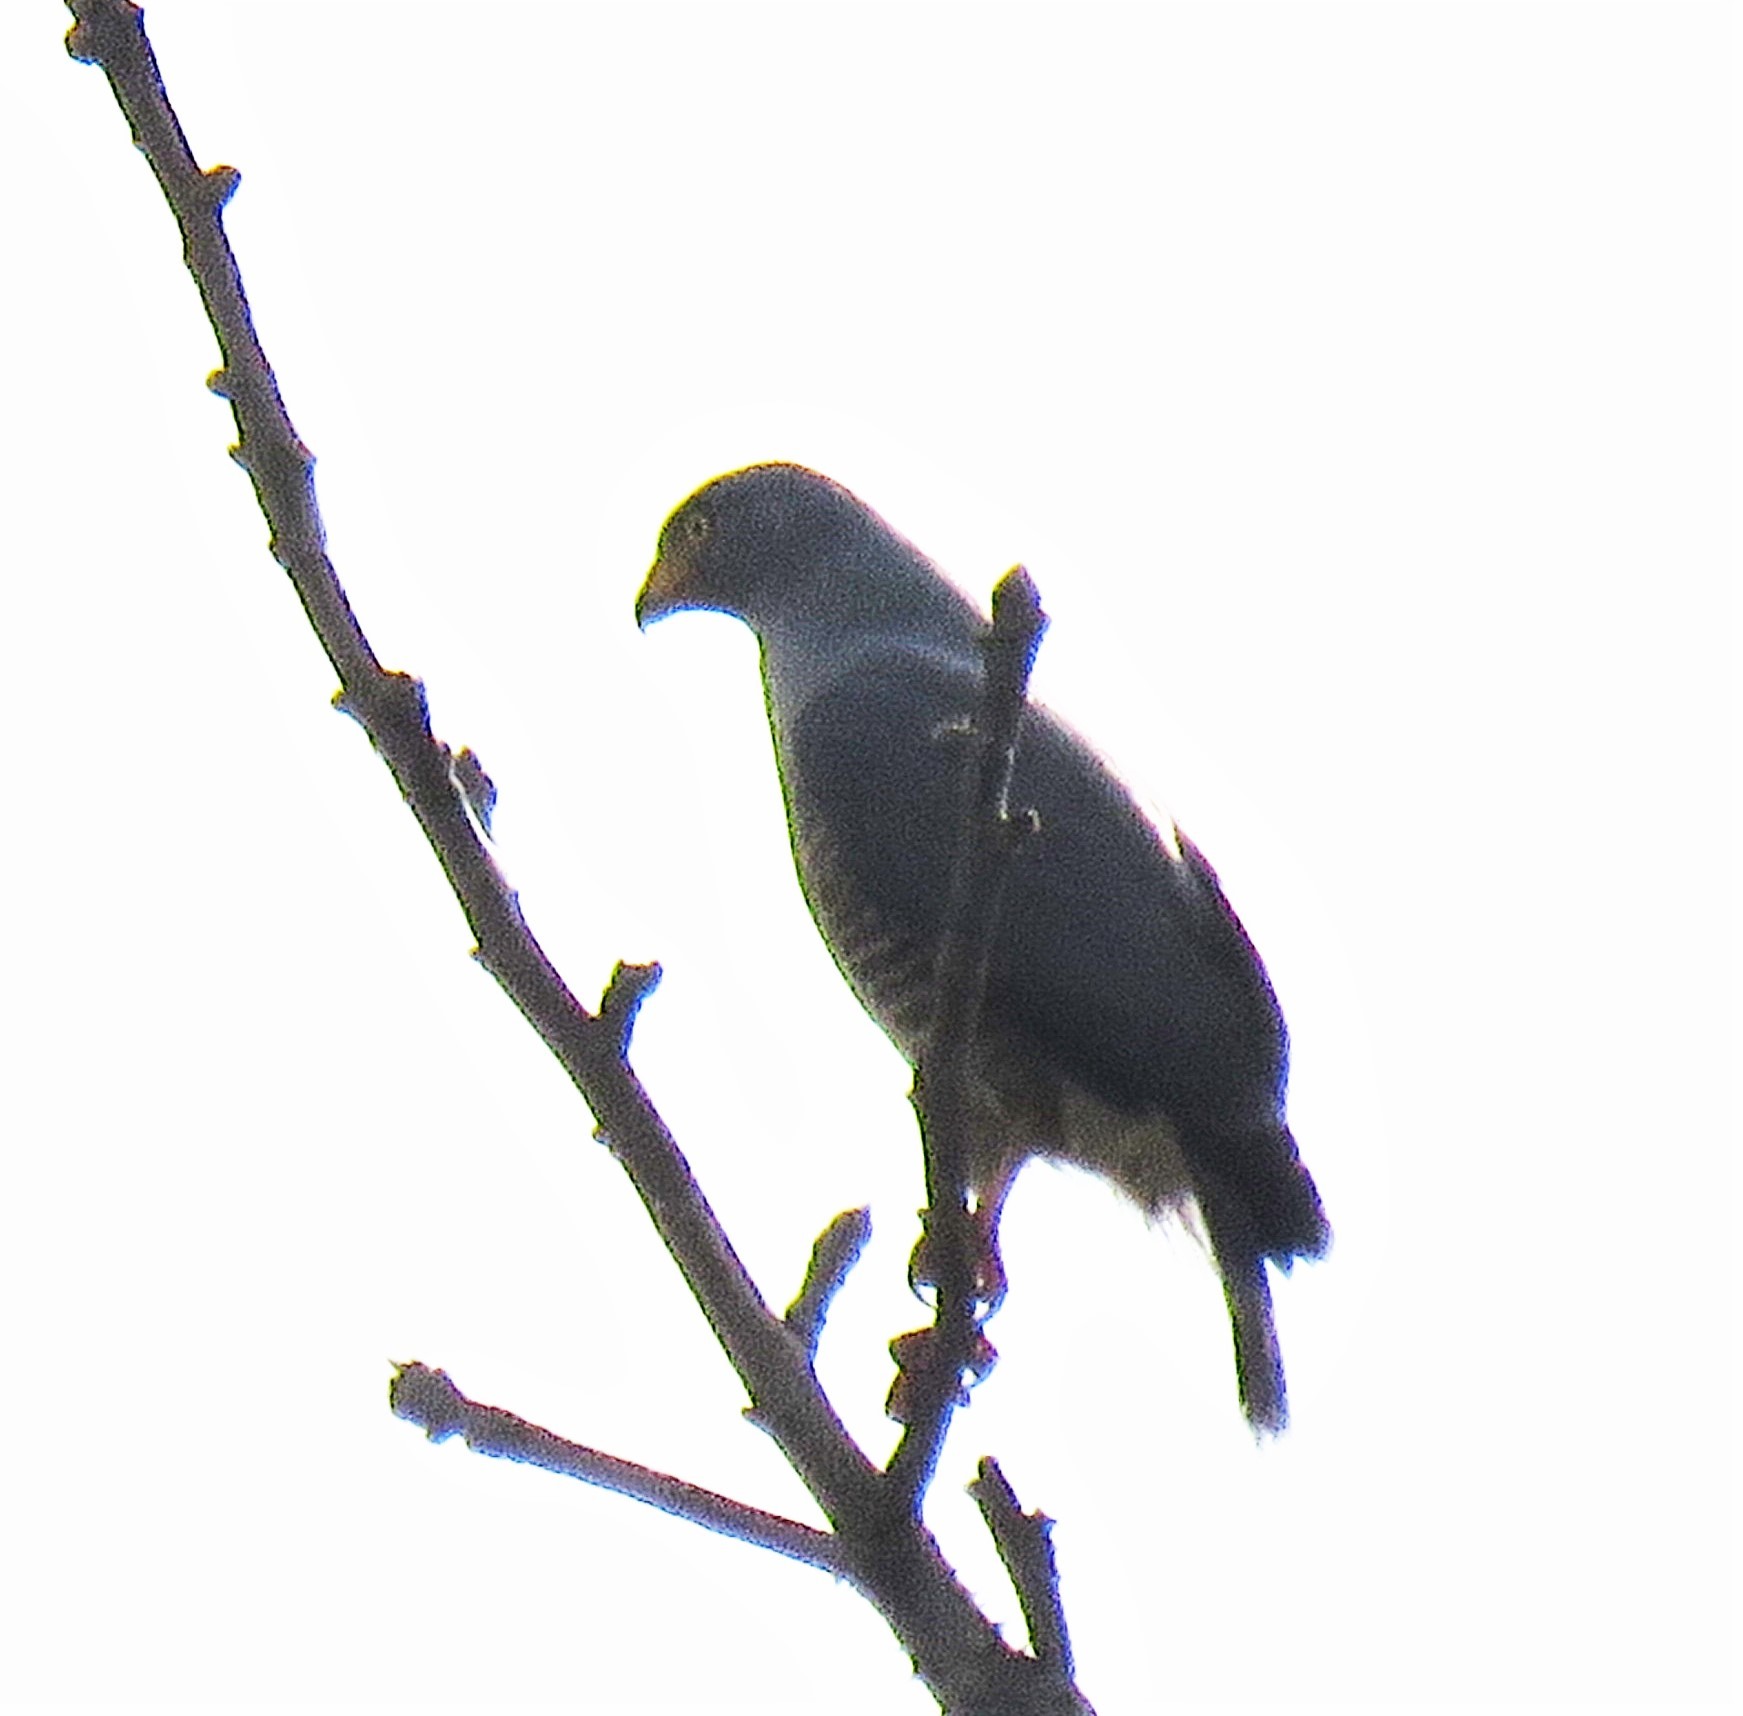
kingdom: Animalia
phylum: Chordata
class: Aves
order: Accipitriformes
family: Accipitridae
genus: Rupornis
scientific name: Rupornis magnirostris
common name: Roadside hawk
